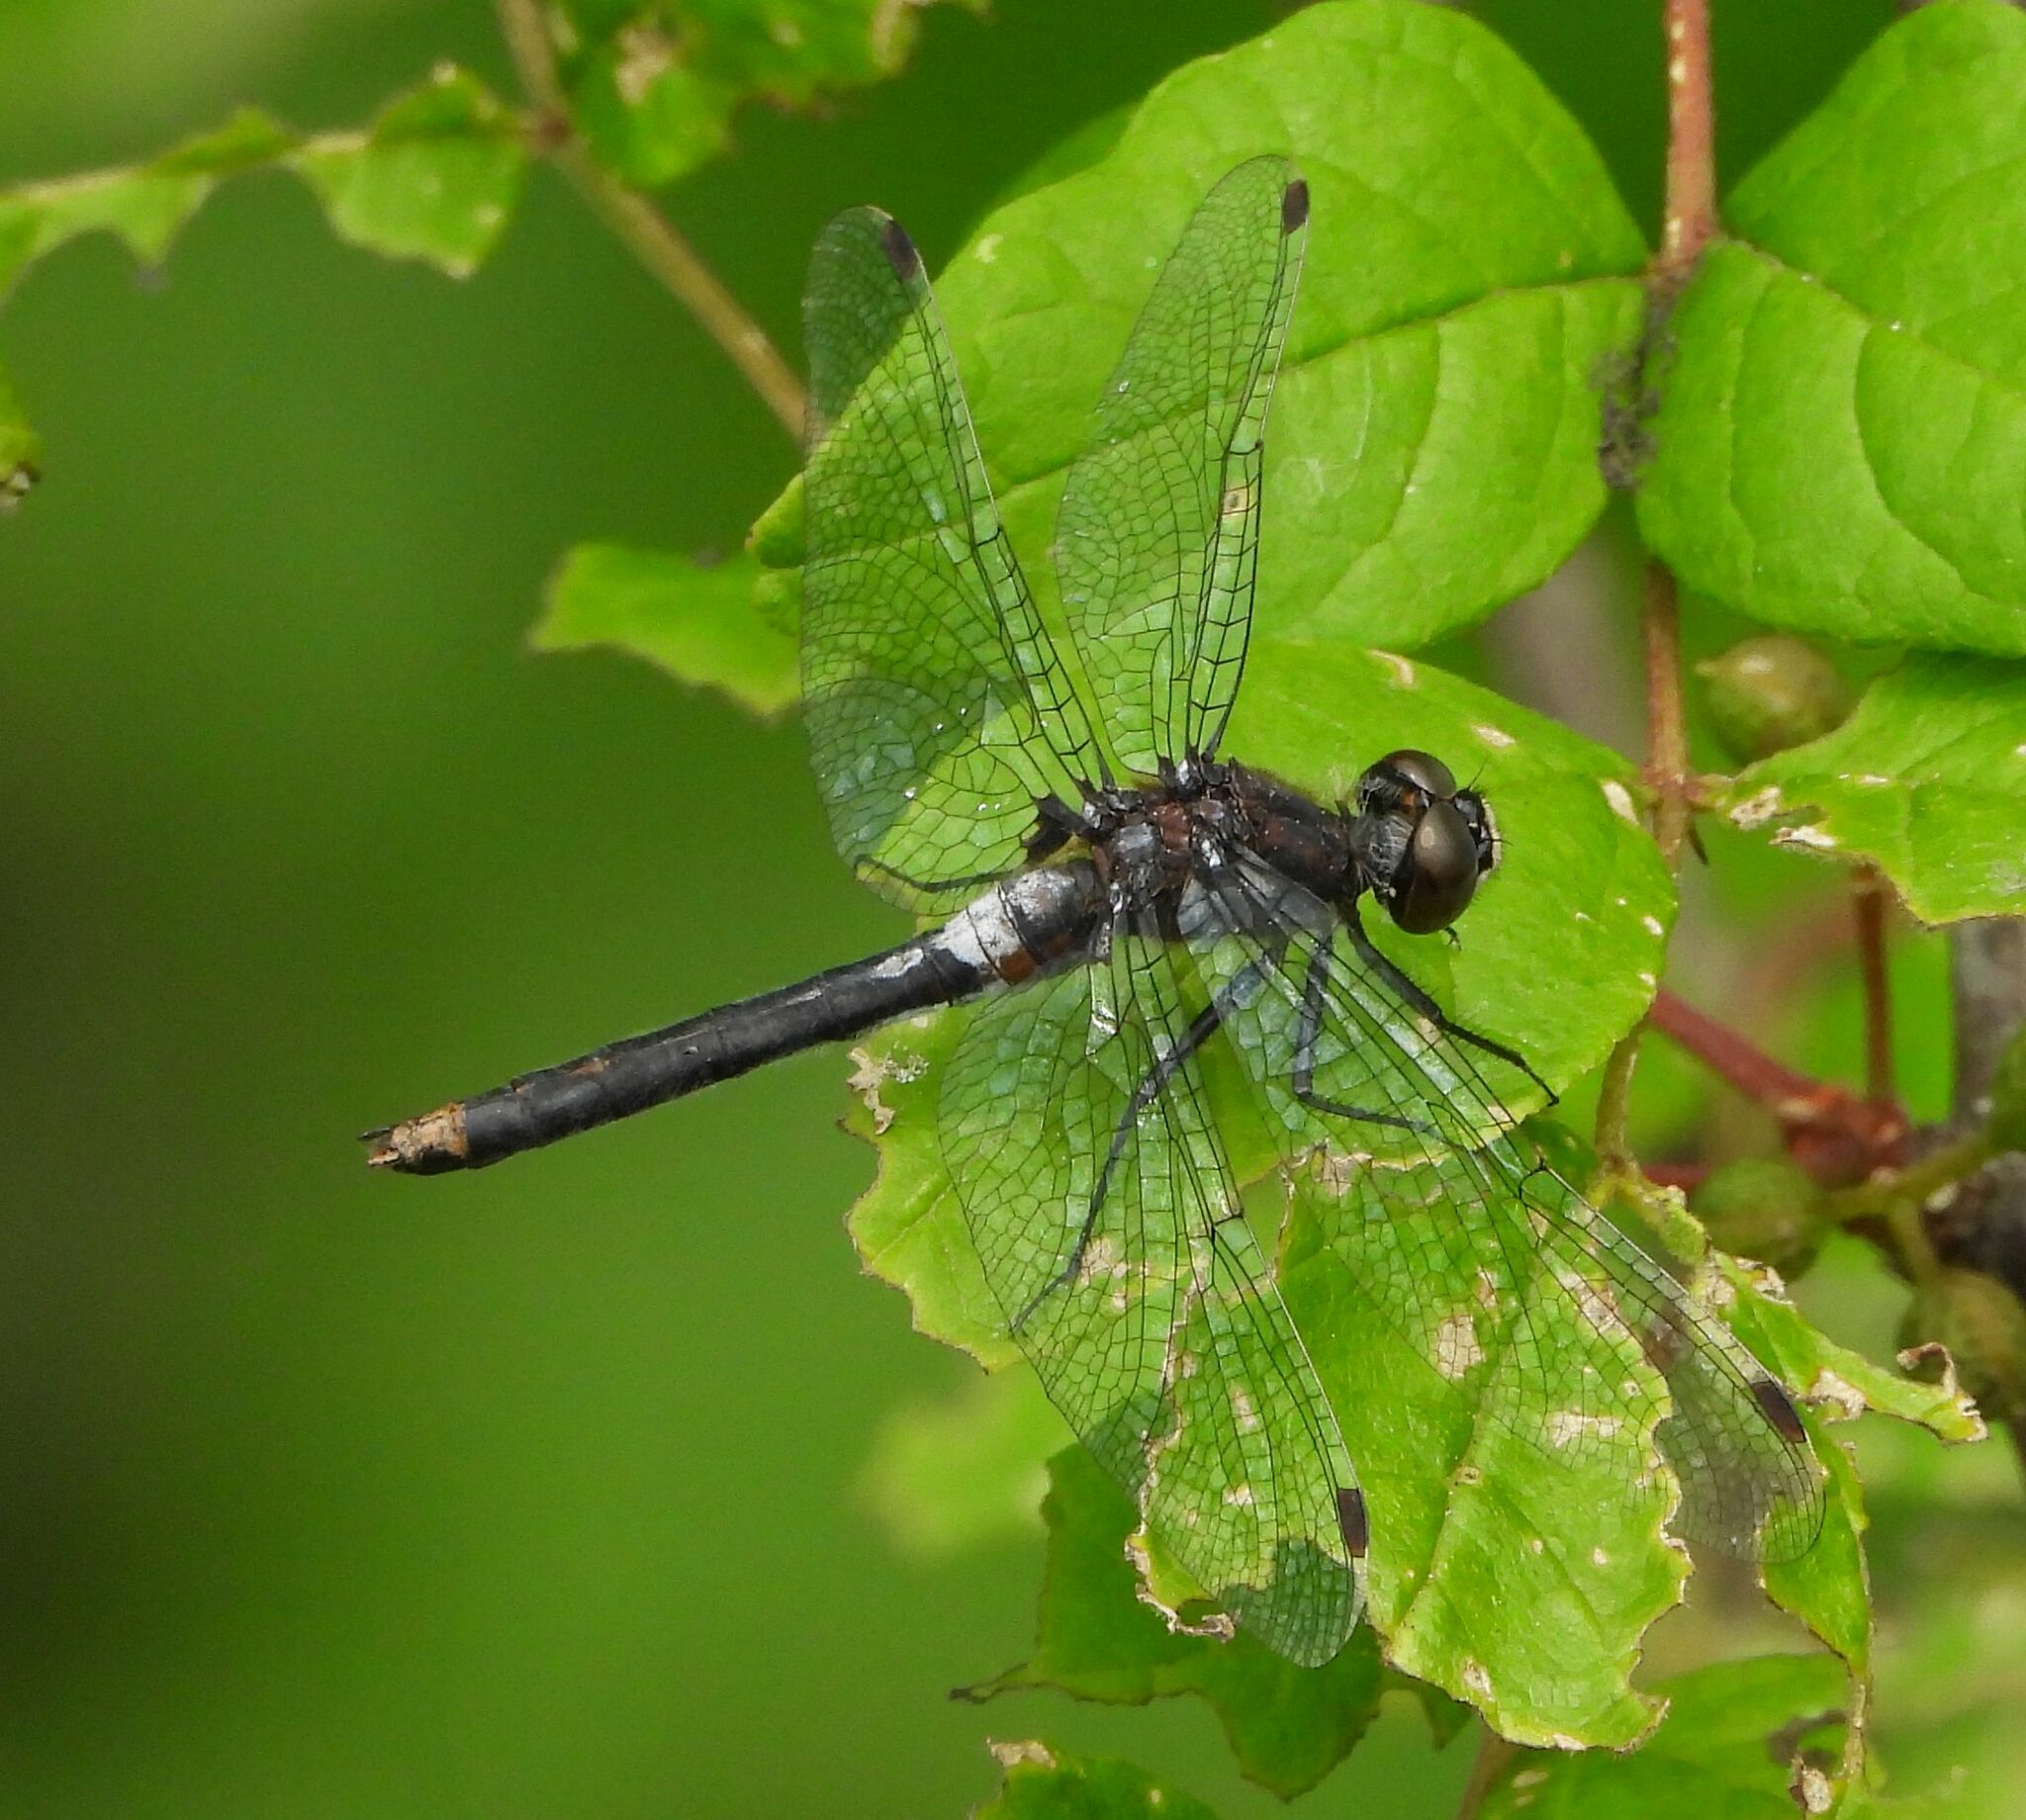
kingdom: Animalia
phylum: Arthropoda
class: Insecta
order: Odonata
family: Libellulidae
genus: Leucorrhinia
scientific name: Leucorrhinia proxima
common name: Belted whiteface
